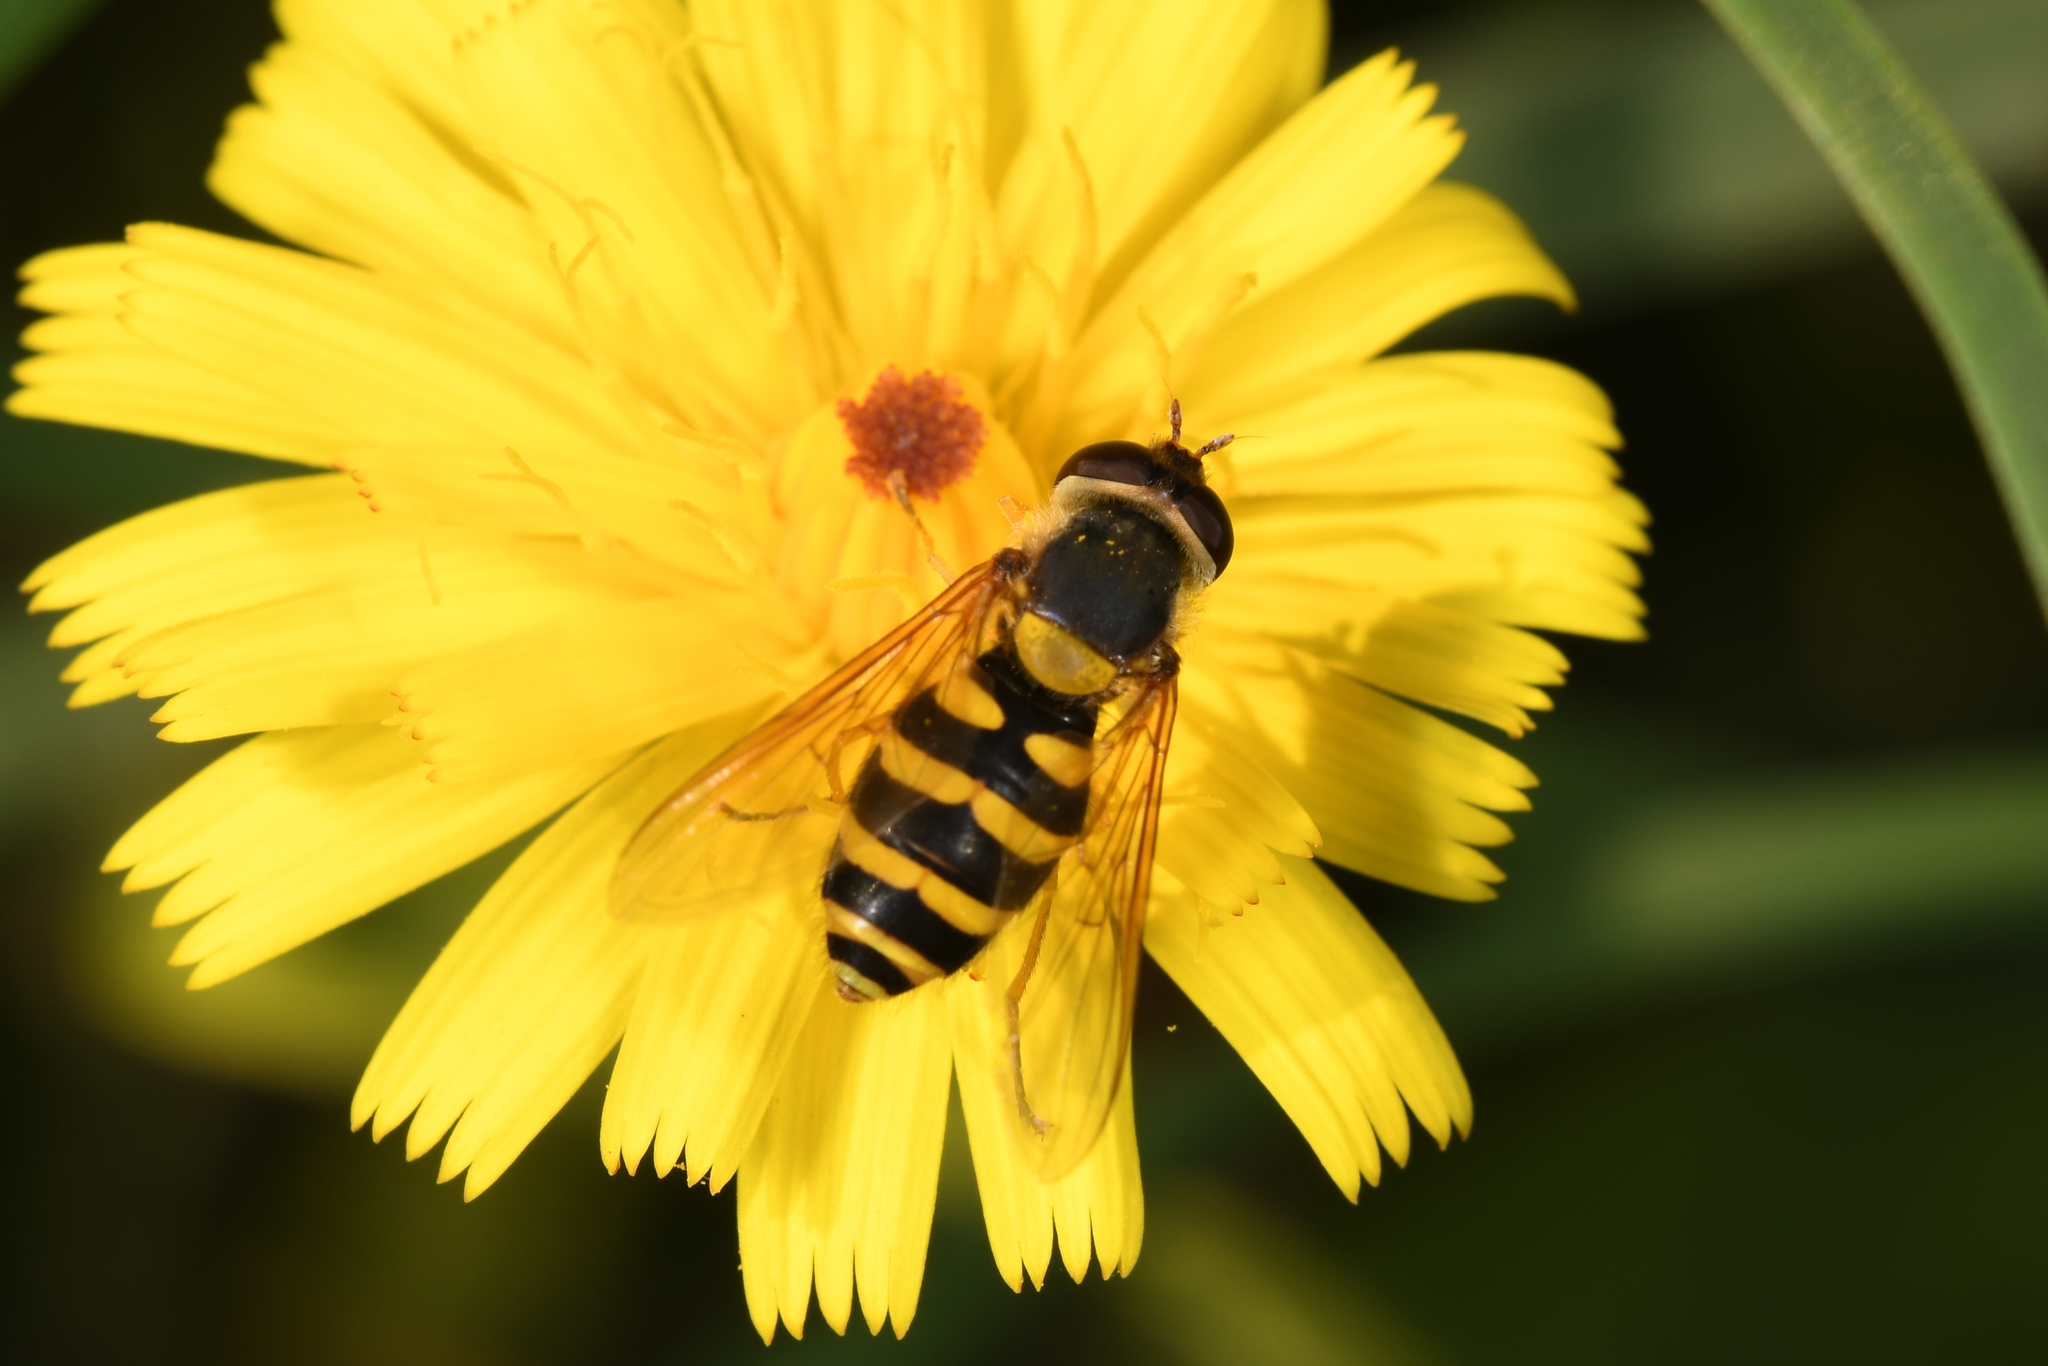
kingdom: Animalia
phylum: Arthropoda
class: Insecta
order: Diptera
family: Syrphidae
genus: Syrphus
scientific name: Syrphus
